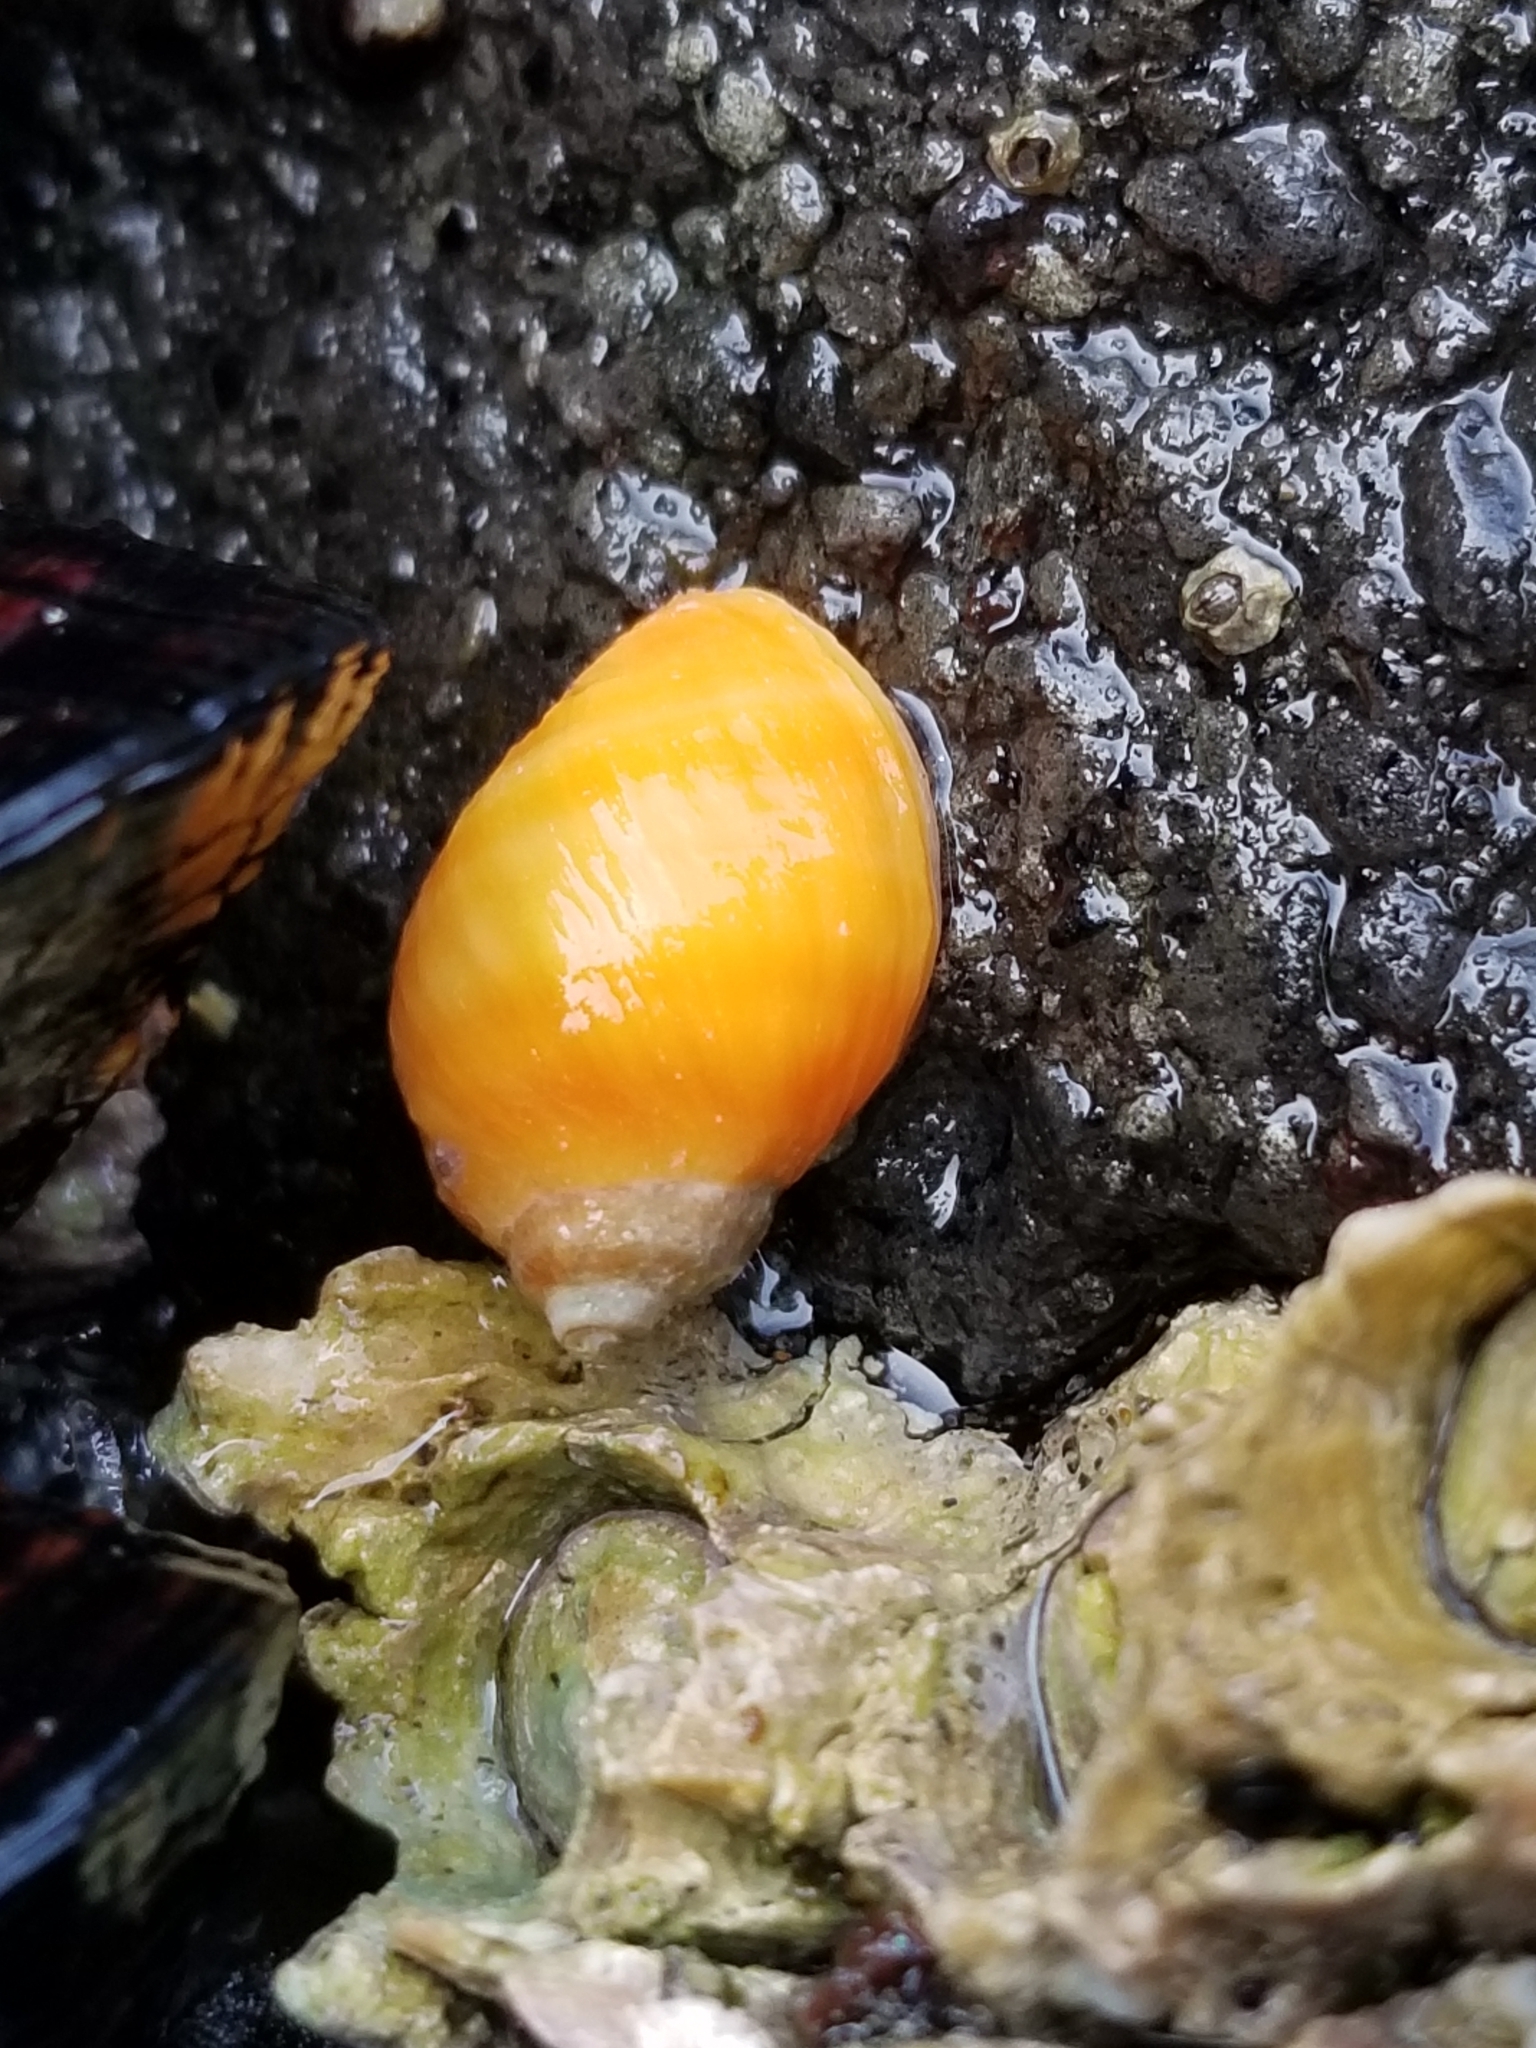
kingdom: Animalia
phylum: Mollusca
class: Gastropoda
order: Neogastropoda
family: Muricidae
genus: Nucella
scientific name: Nucella ostrina
